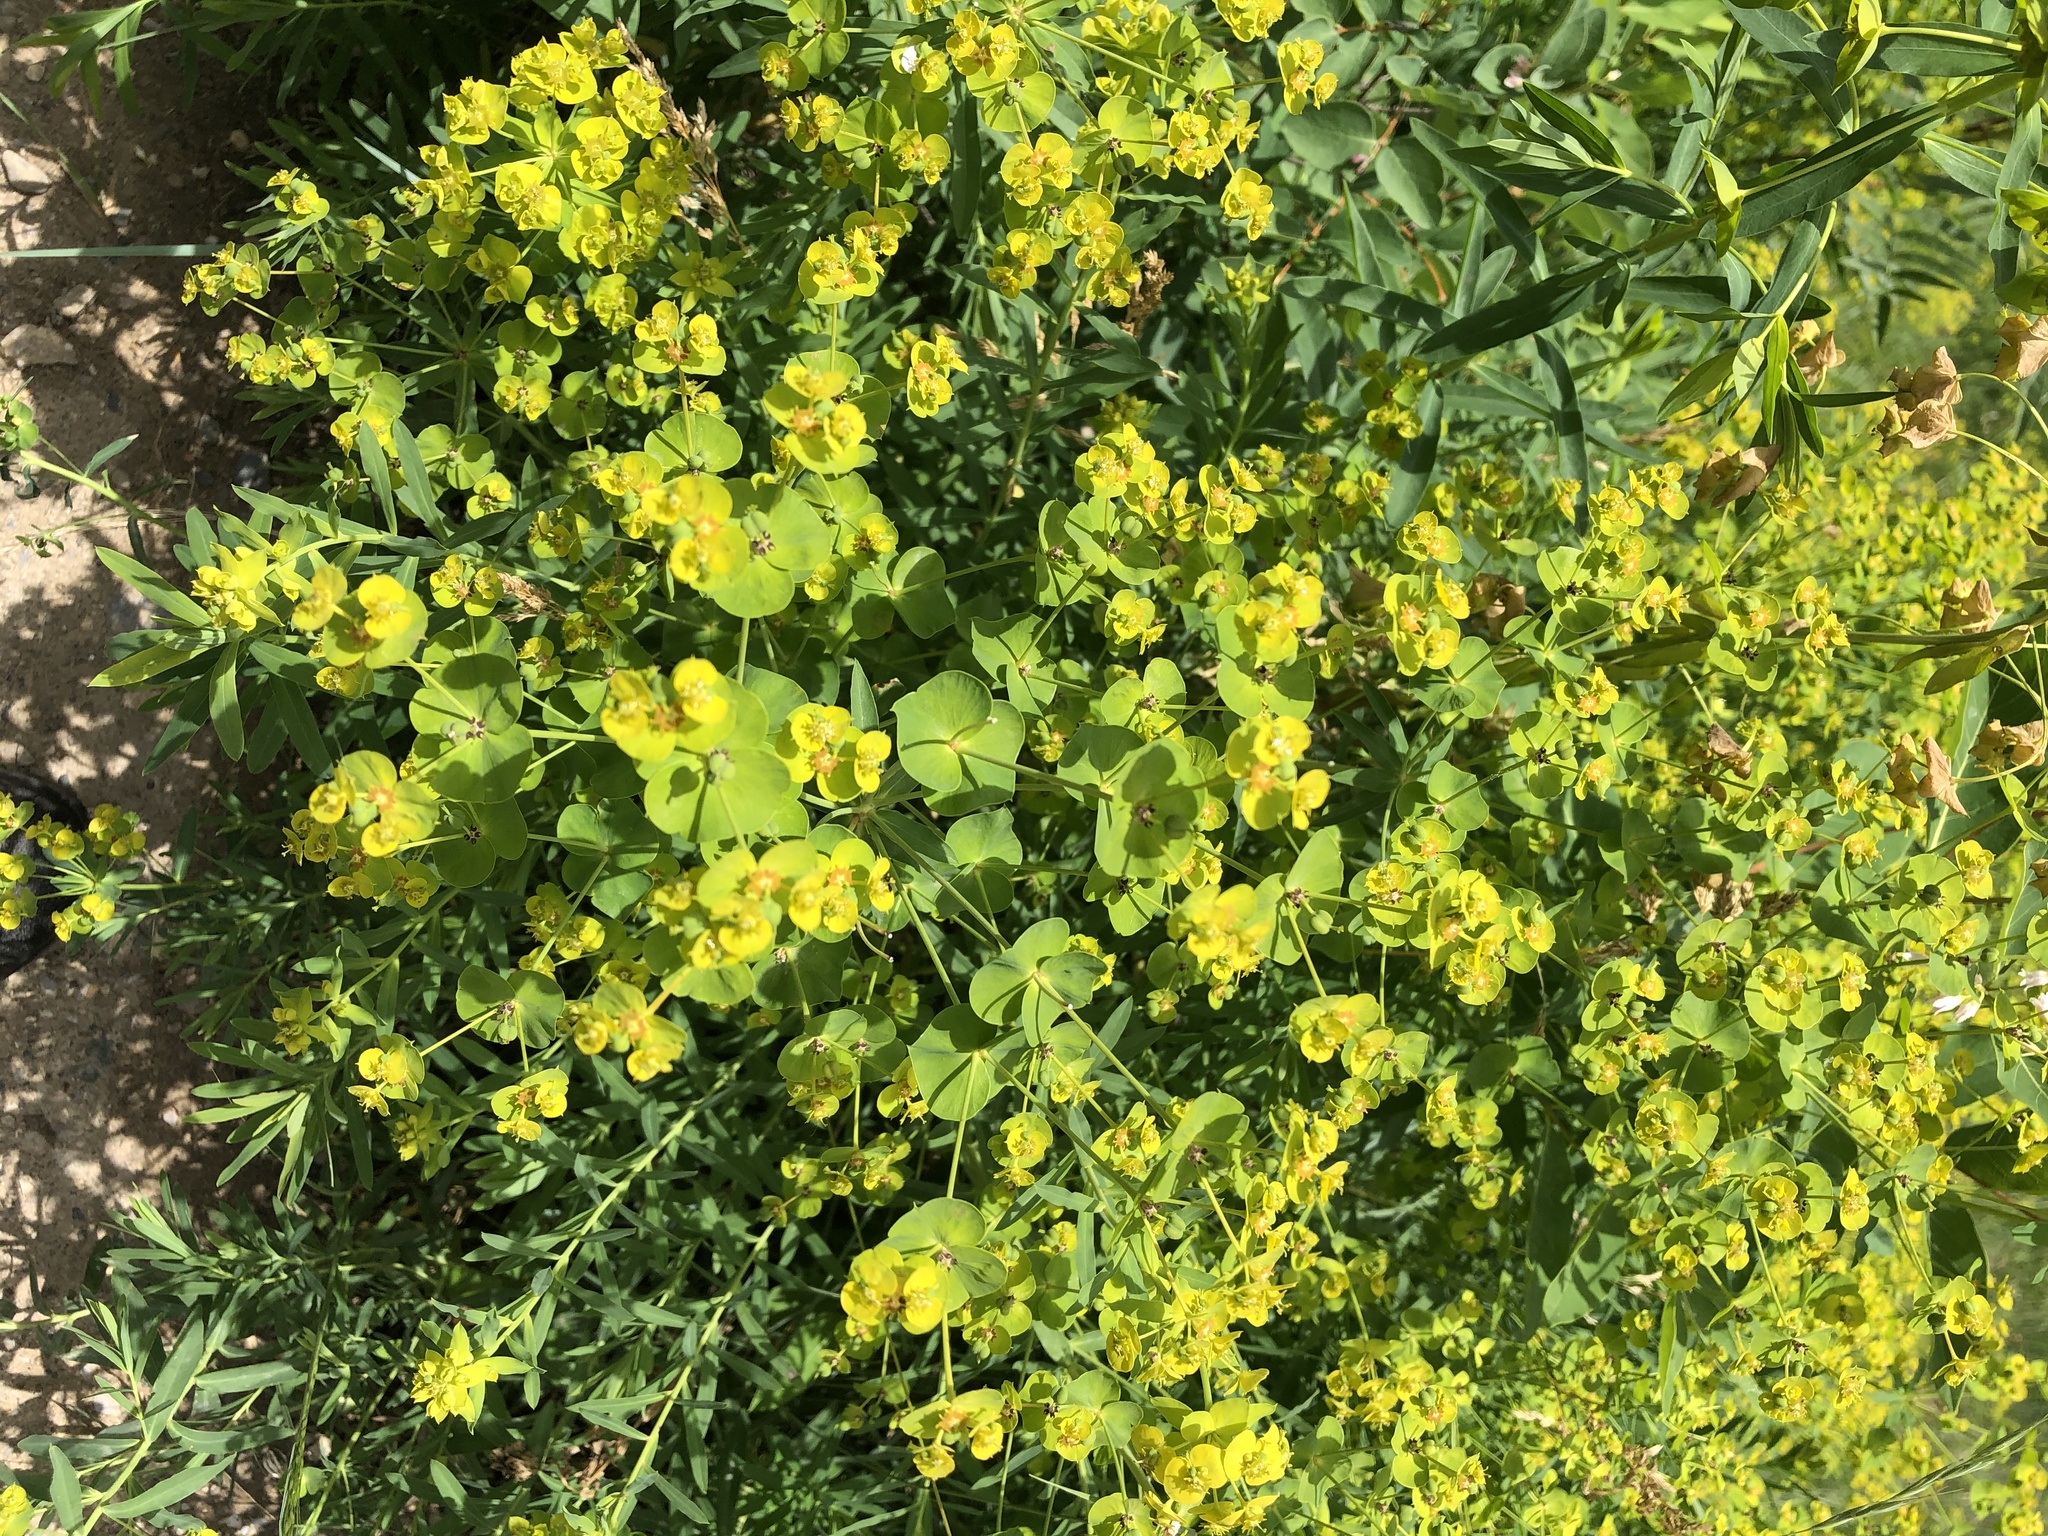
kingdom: Plantae
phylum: Tracheophyta
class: Magnoliopsida
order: Malpighiales
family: Euphorbiaceae
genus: Euphorbia
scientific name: Euphorbia virgata
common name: Leafy spurge
